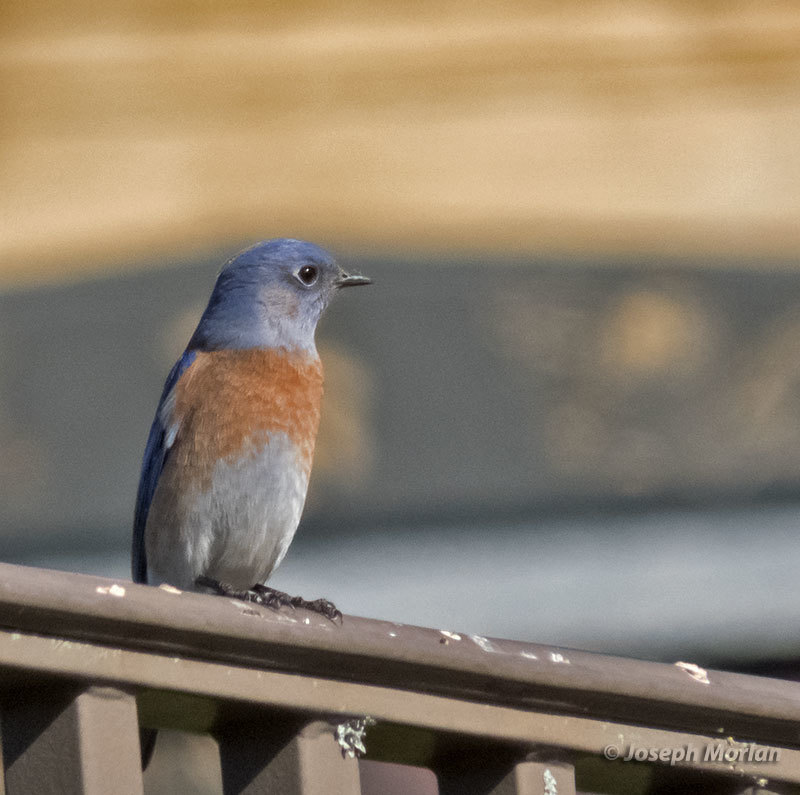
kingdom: Animalia
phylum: Chordata
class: Aves
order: Passeriformes
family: Turdidae
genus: Sialia
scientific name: Sialia mexicana
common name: Western bluebird
